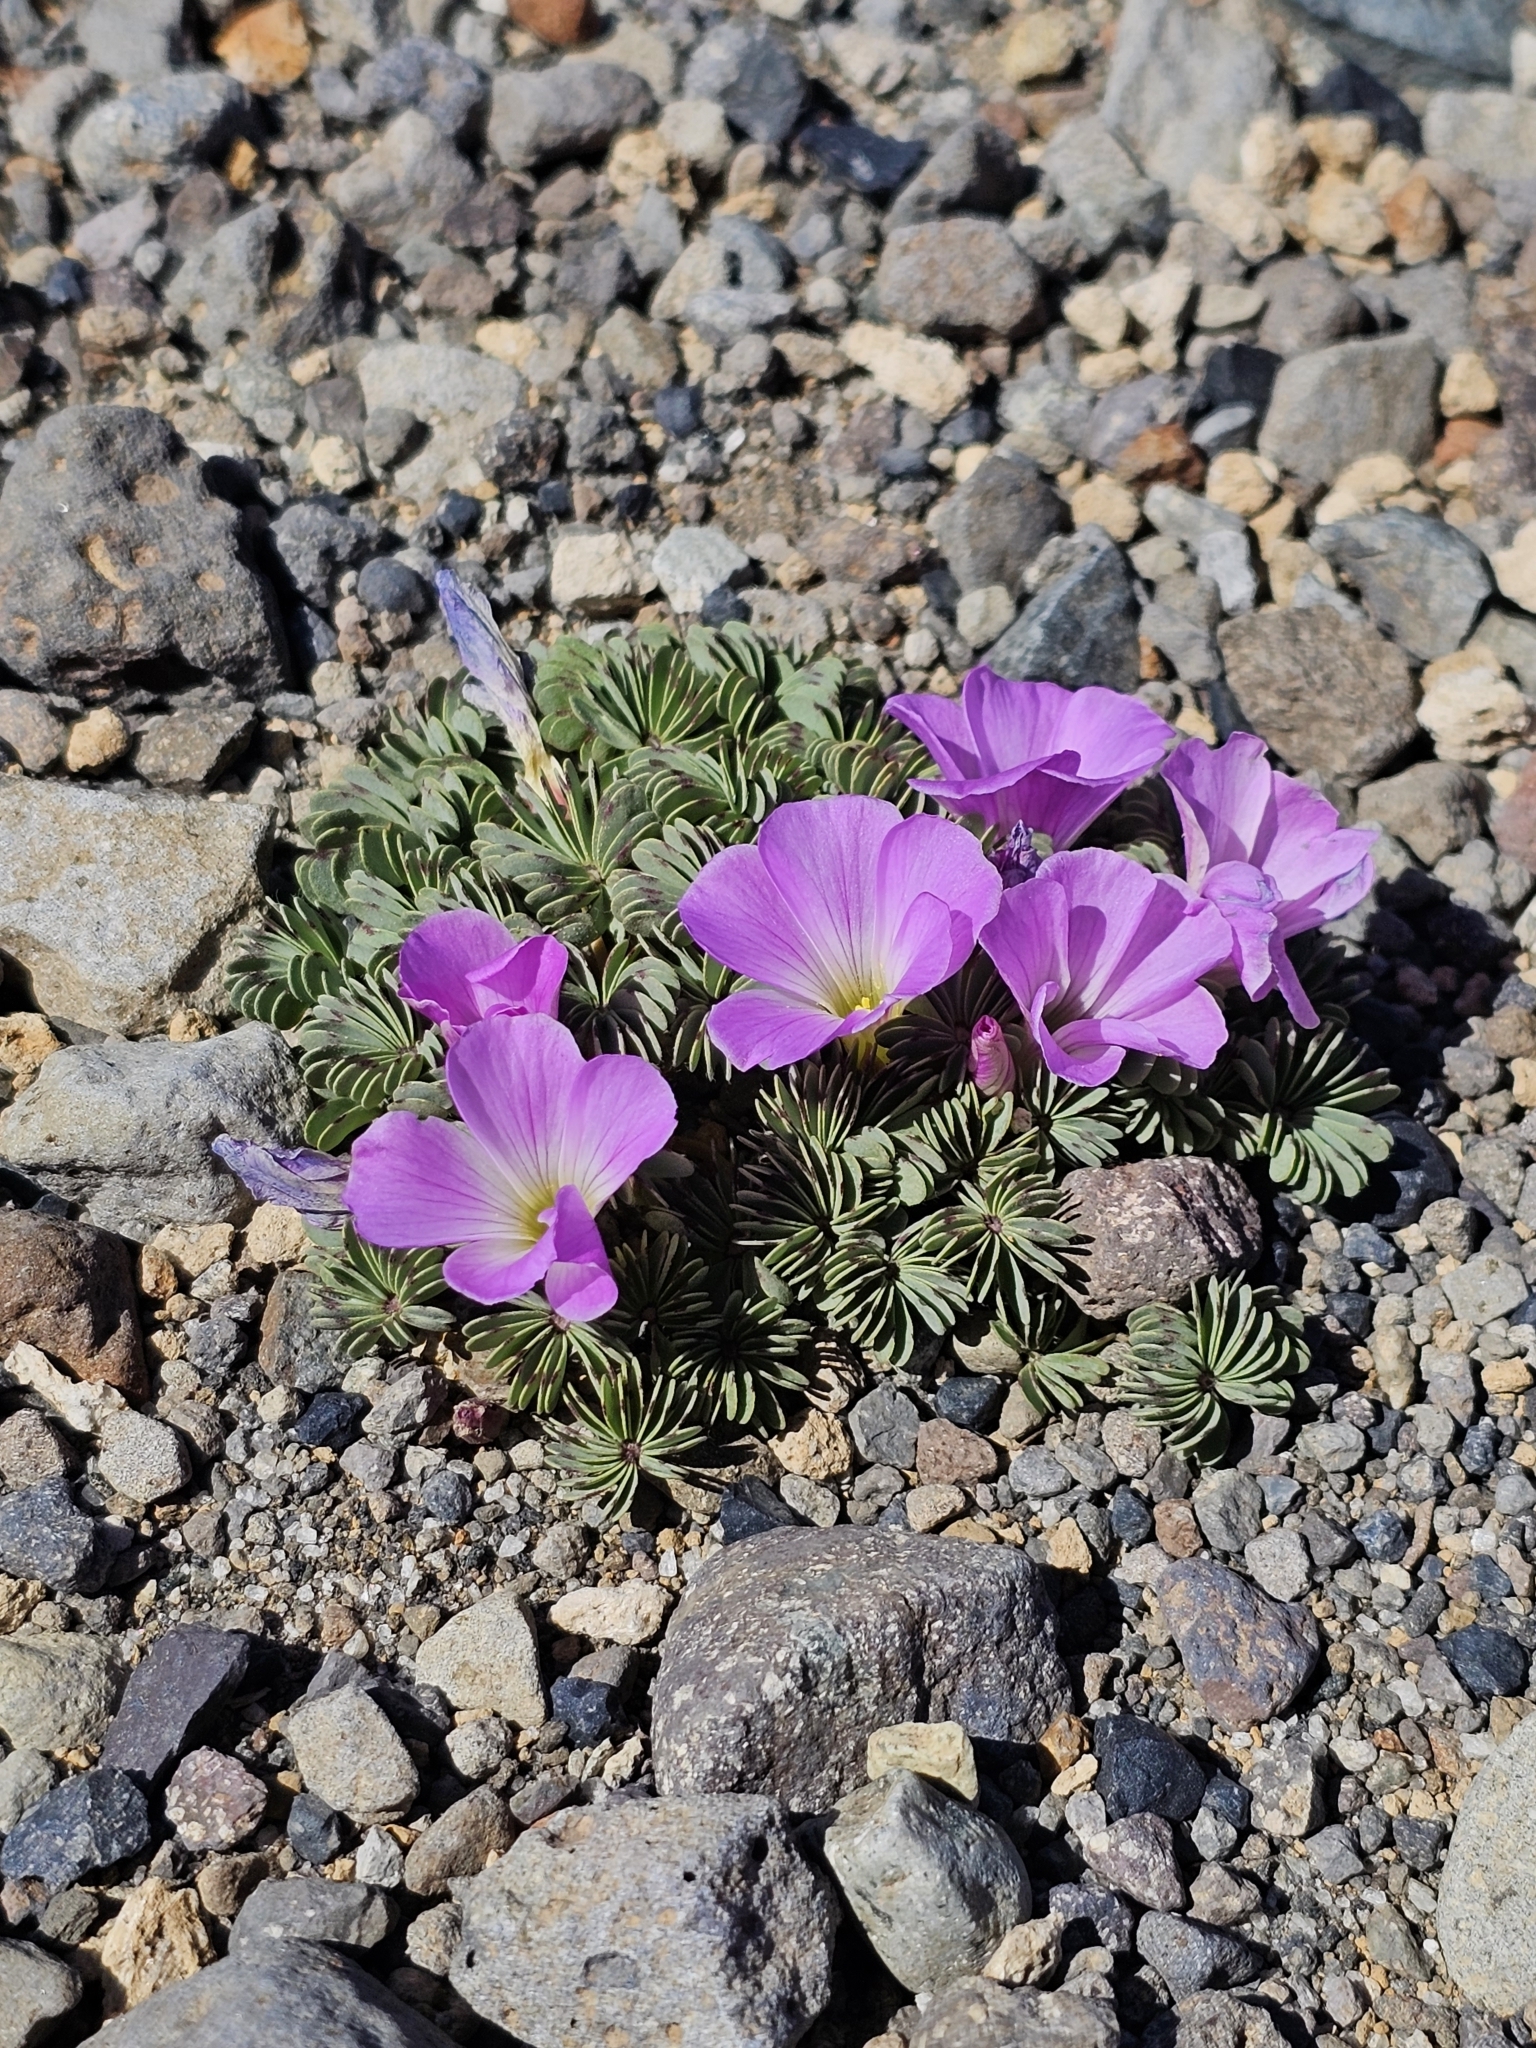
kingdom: Plantae
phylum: Tracheophyta
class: Magnoliopsida
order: Oxalidales
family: Oxalidaceae
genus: Oxalis
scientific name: Oxalis adenophylla
